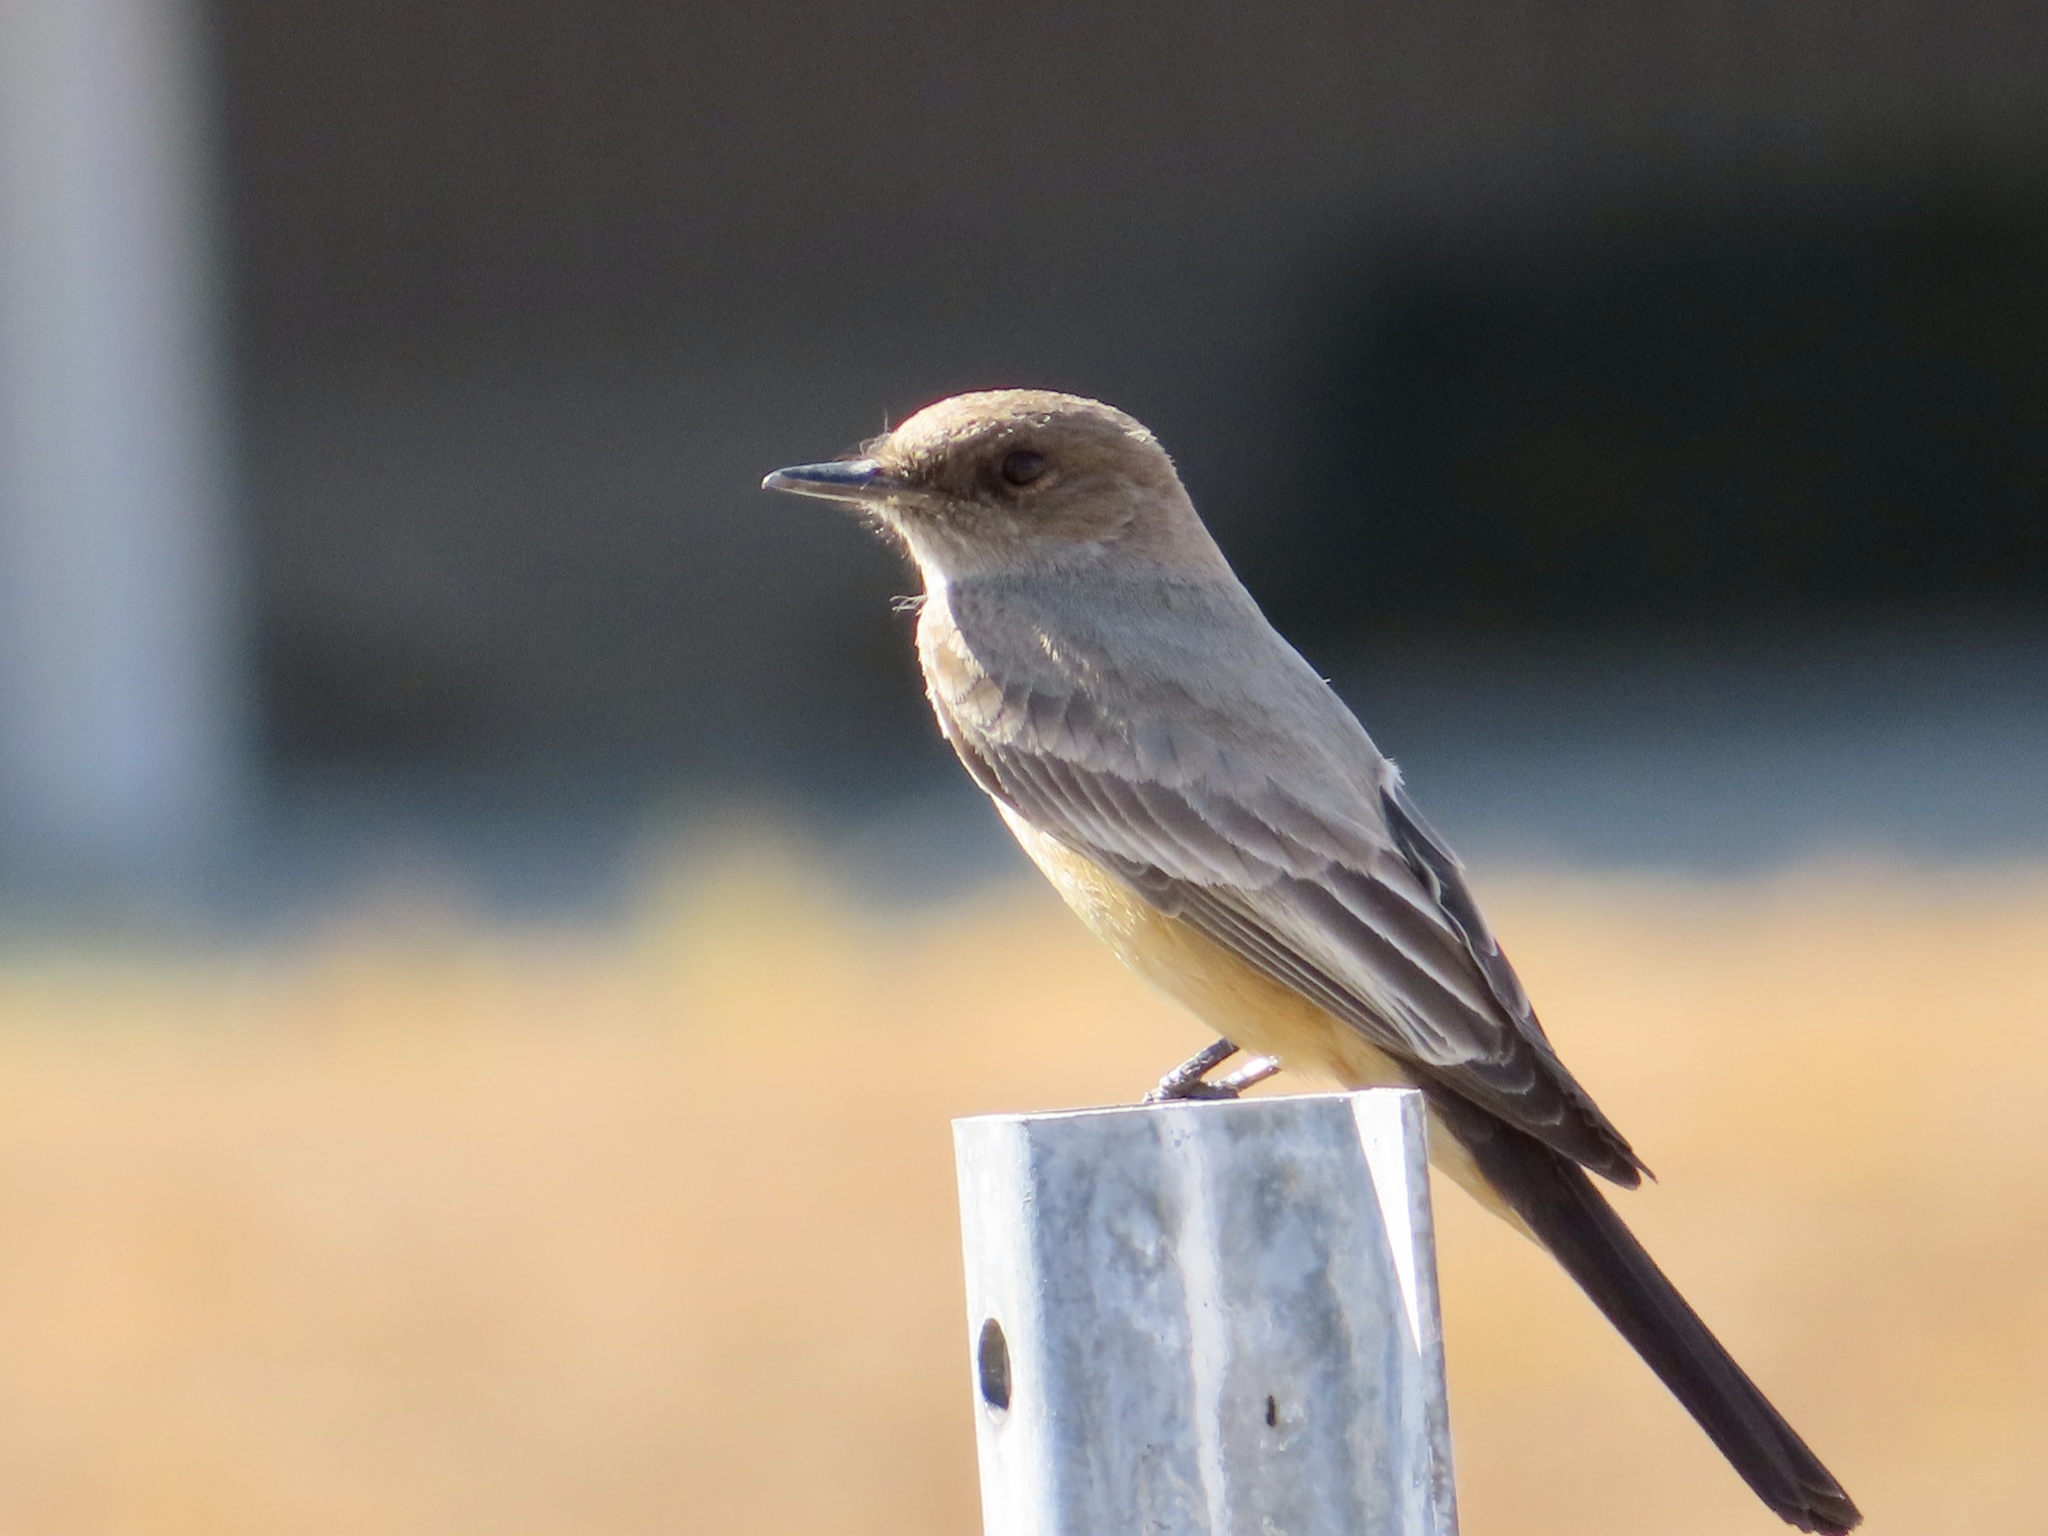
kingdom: Animalia
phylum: Chordata
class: Aves
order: Passeriformes
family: Tyrannidae
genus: Sayornis
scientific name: Sayornis saya
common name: Say's phoebe
